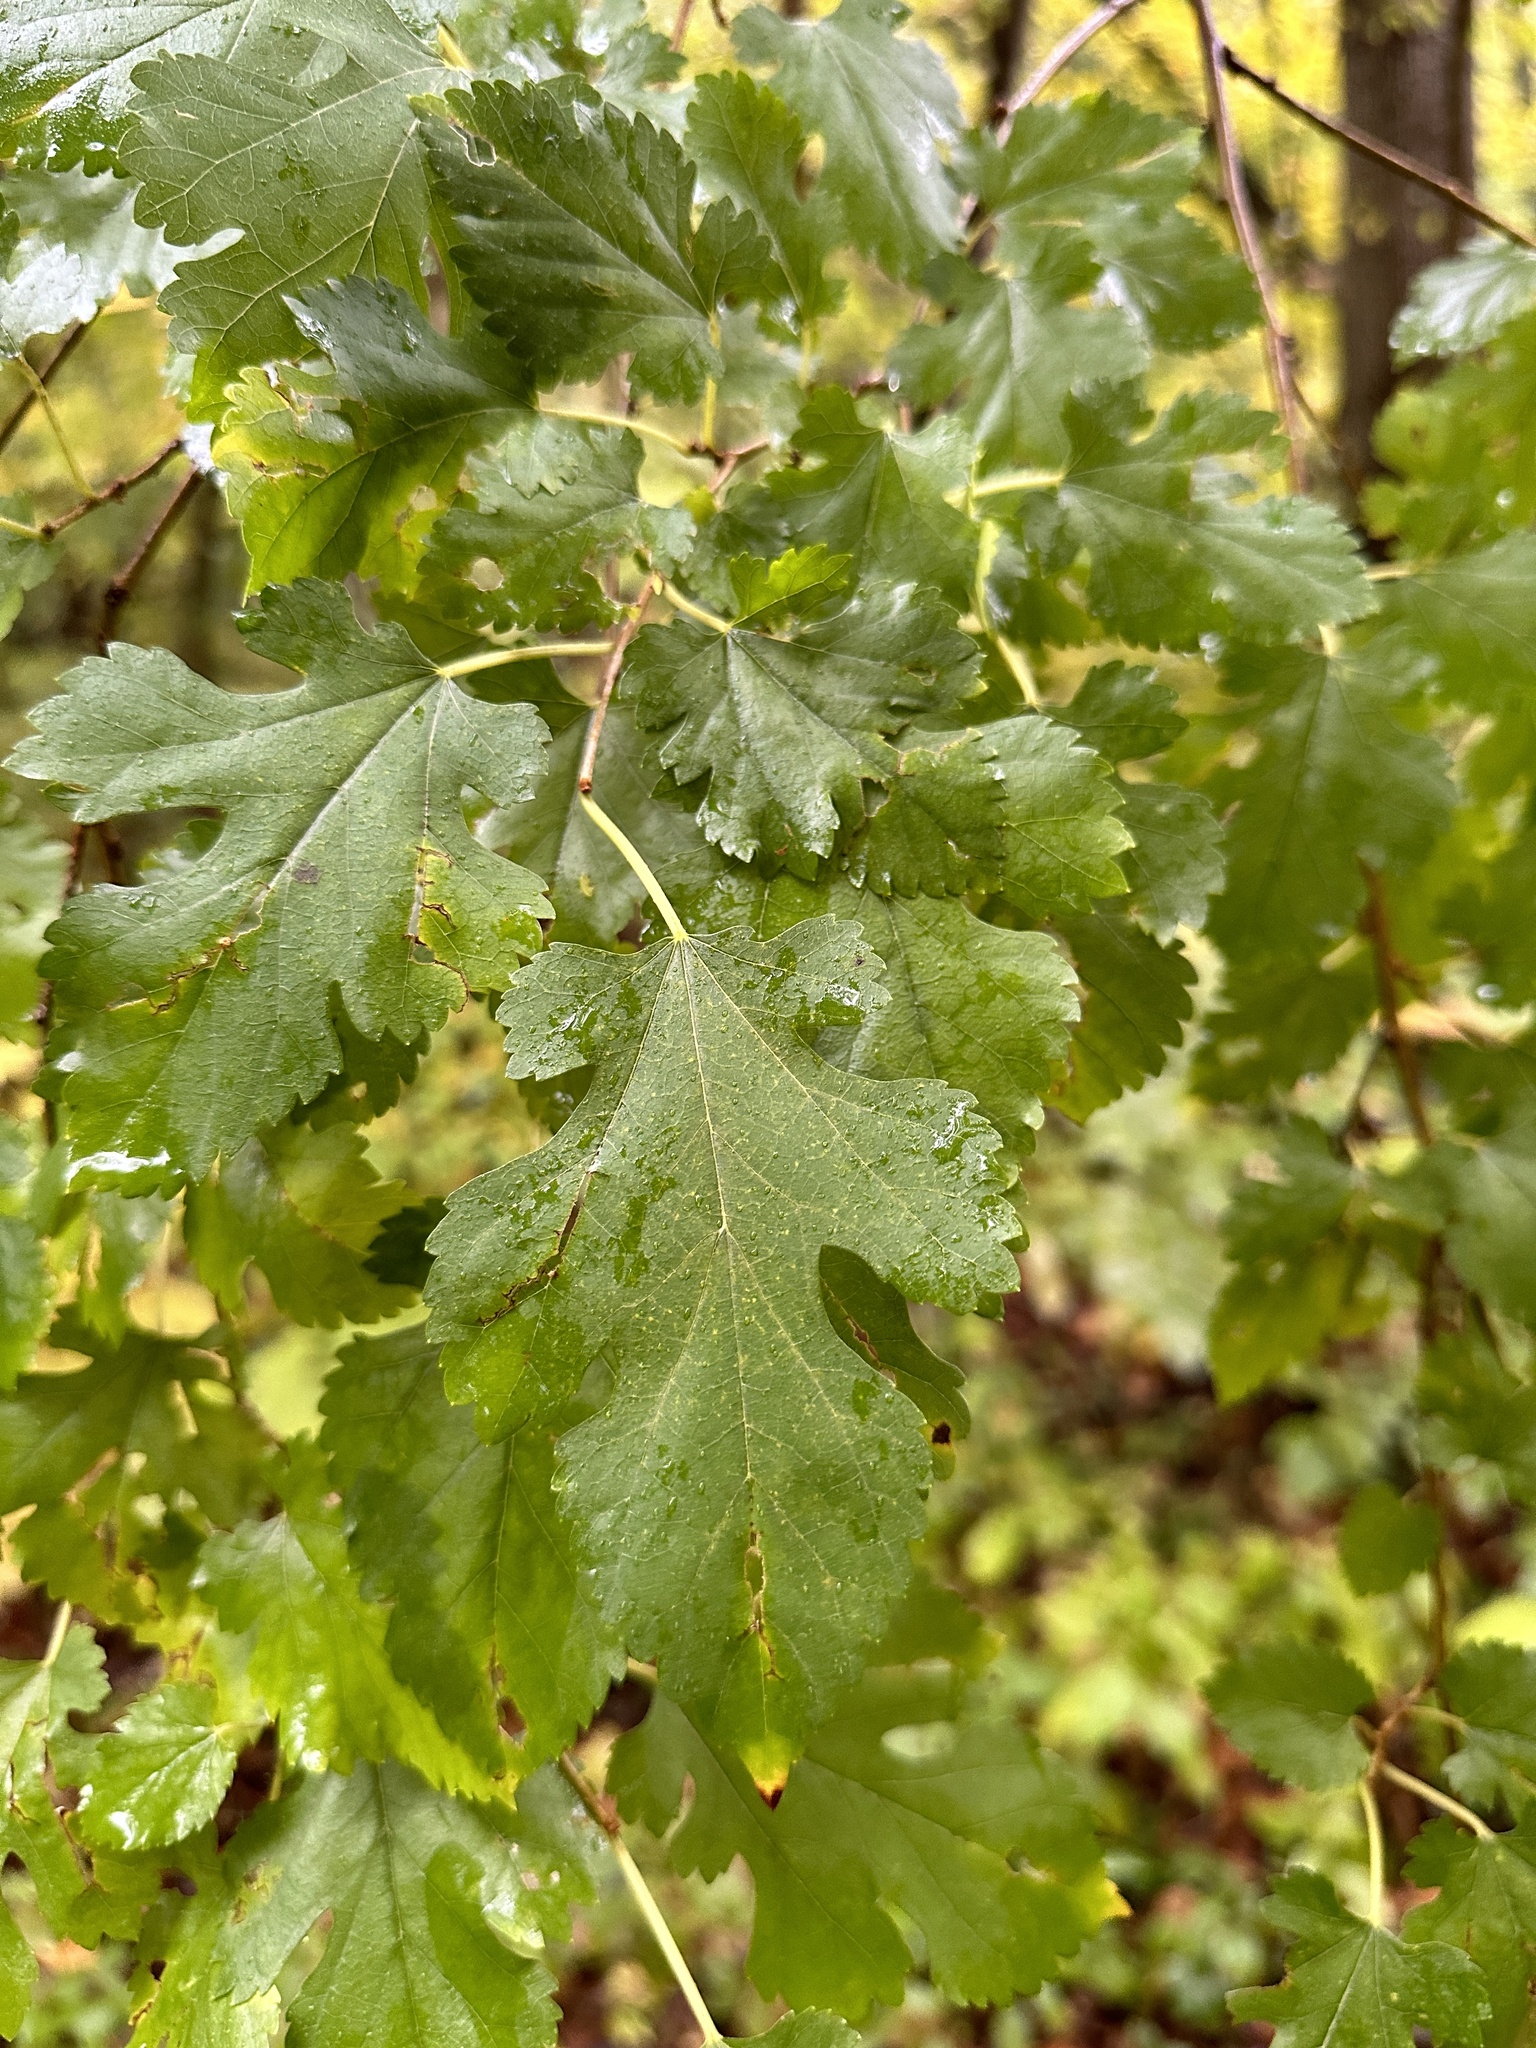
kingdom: Plantae
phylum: Tracheophyta
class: Magnoliopsida
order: Rosales
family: Moraceae
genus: Morus
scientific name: Morus alba
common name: White mulberry
